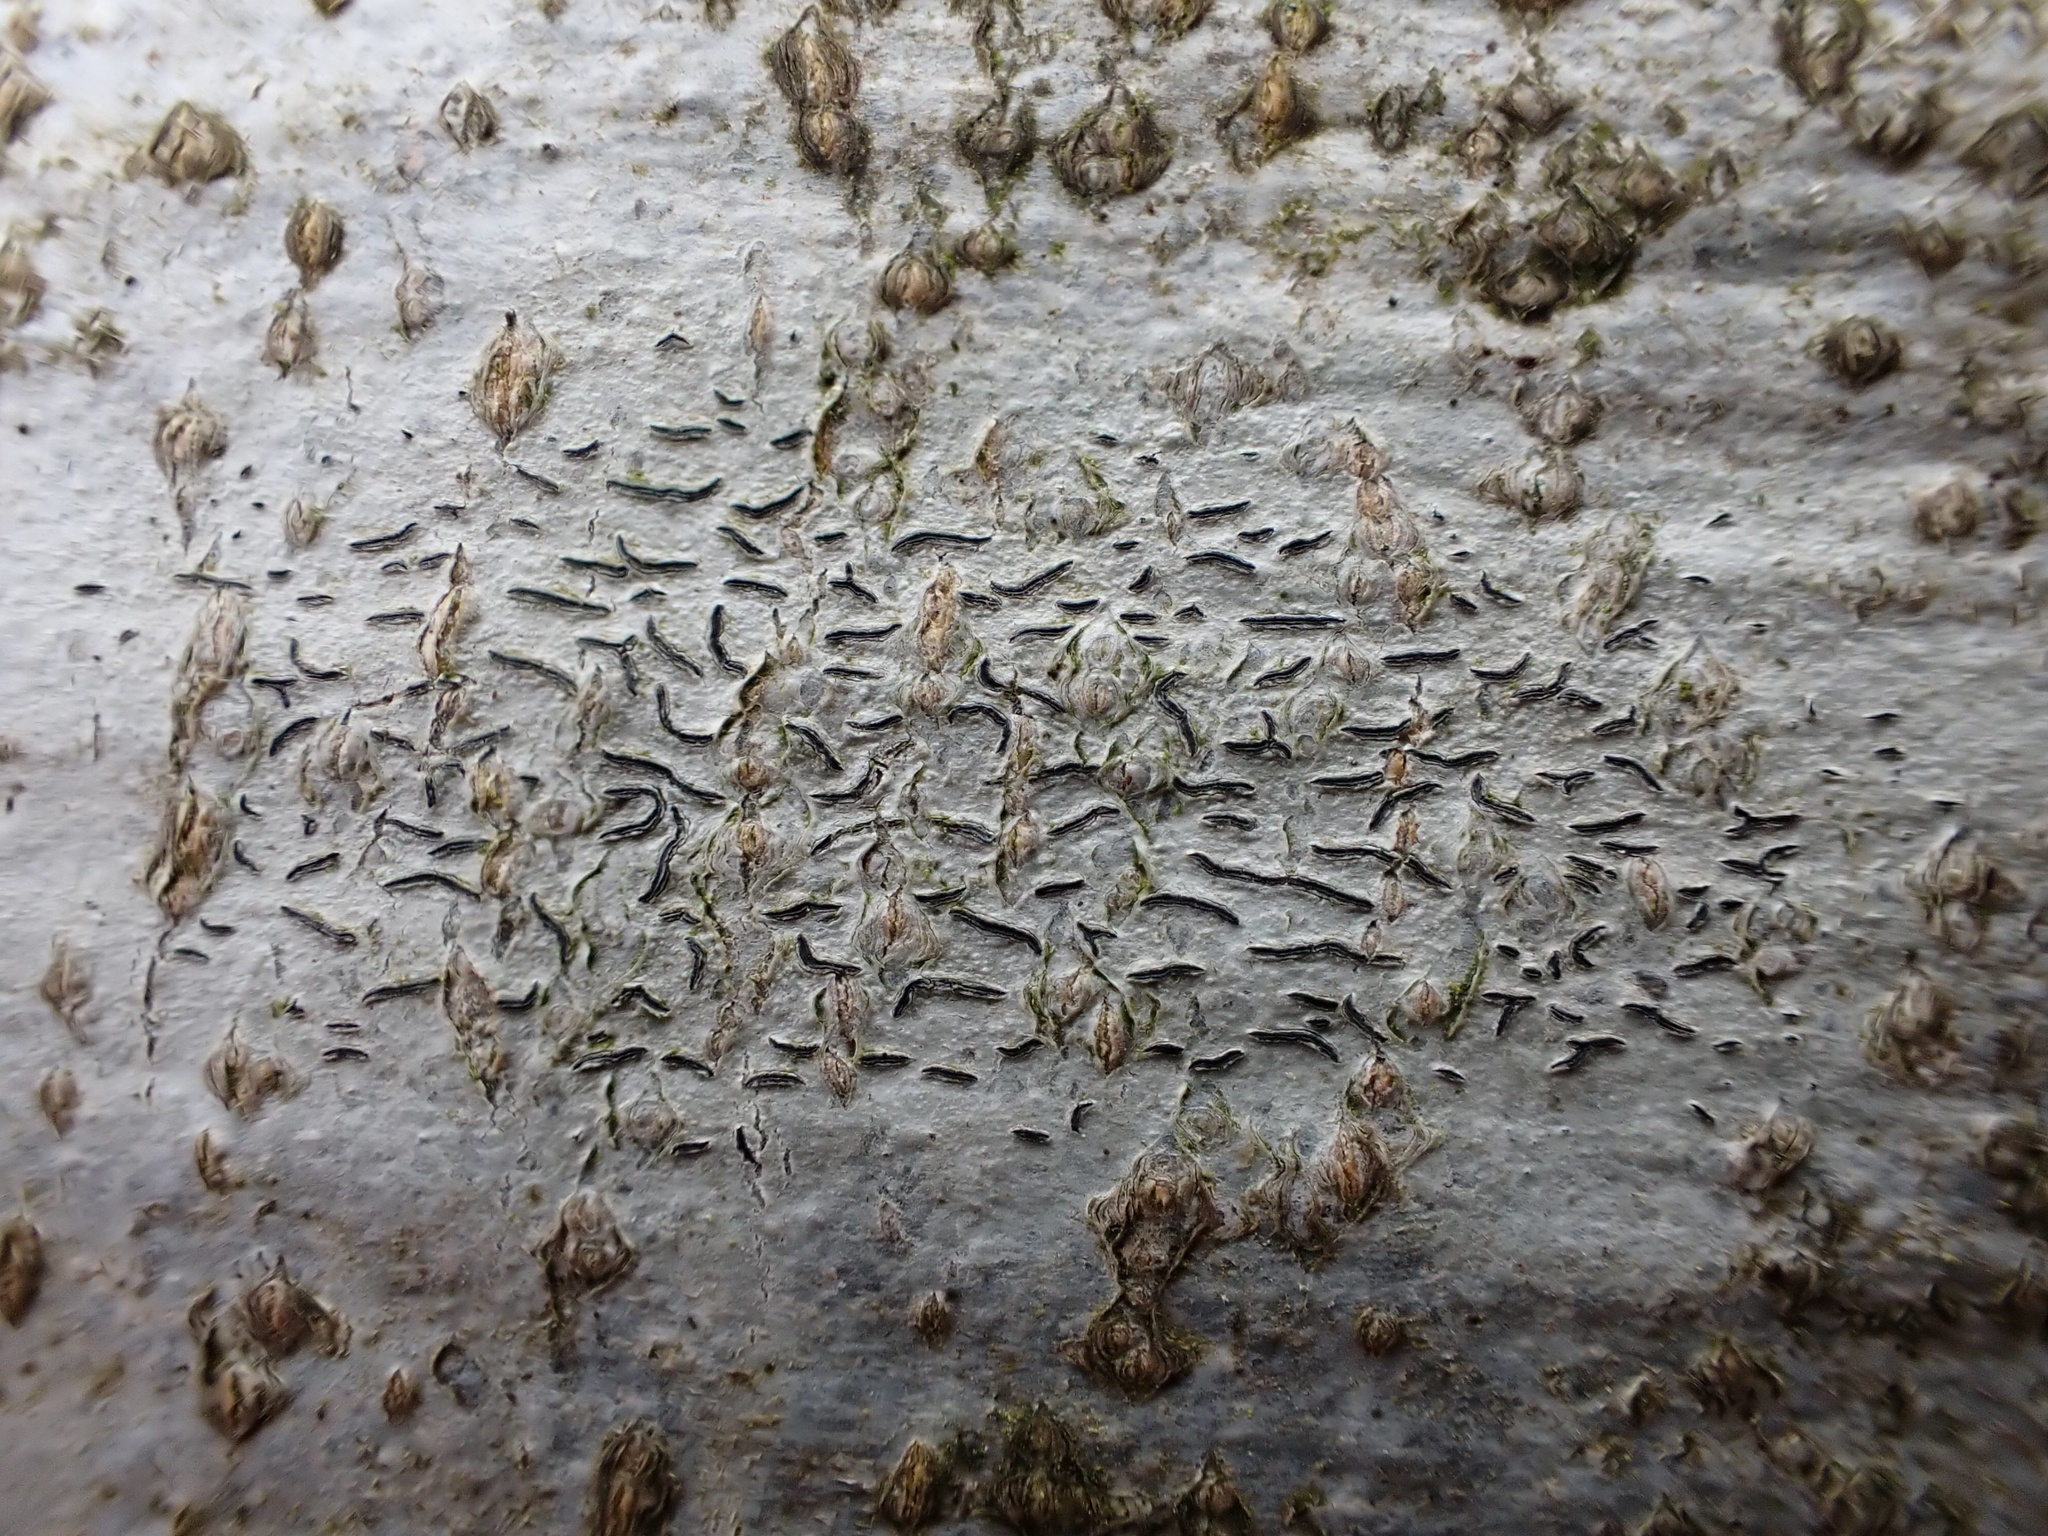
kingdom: Fungi
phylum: Ascomycota
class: Lecanoromycetes
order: Ostropales
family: Graphidaceae
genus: Graphis
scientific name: Graphis scripta
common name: Script lichen
